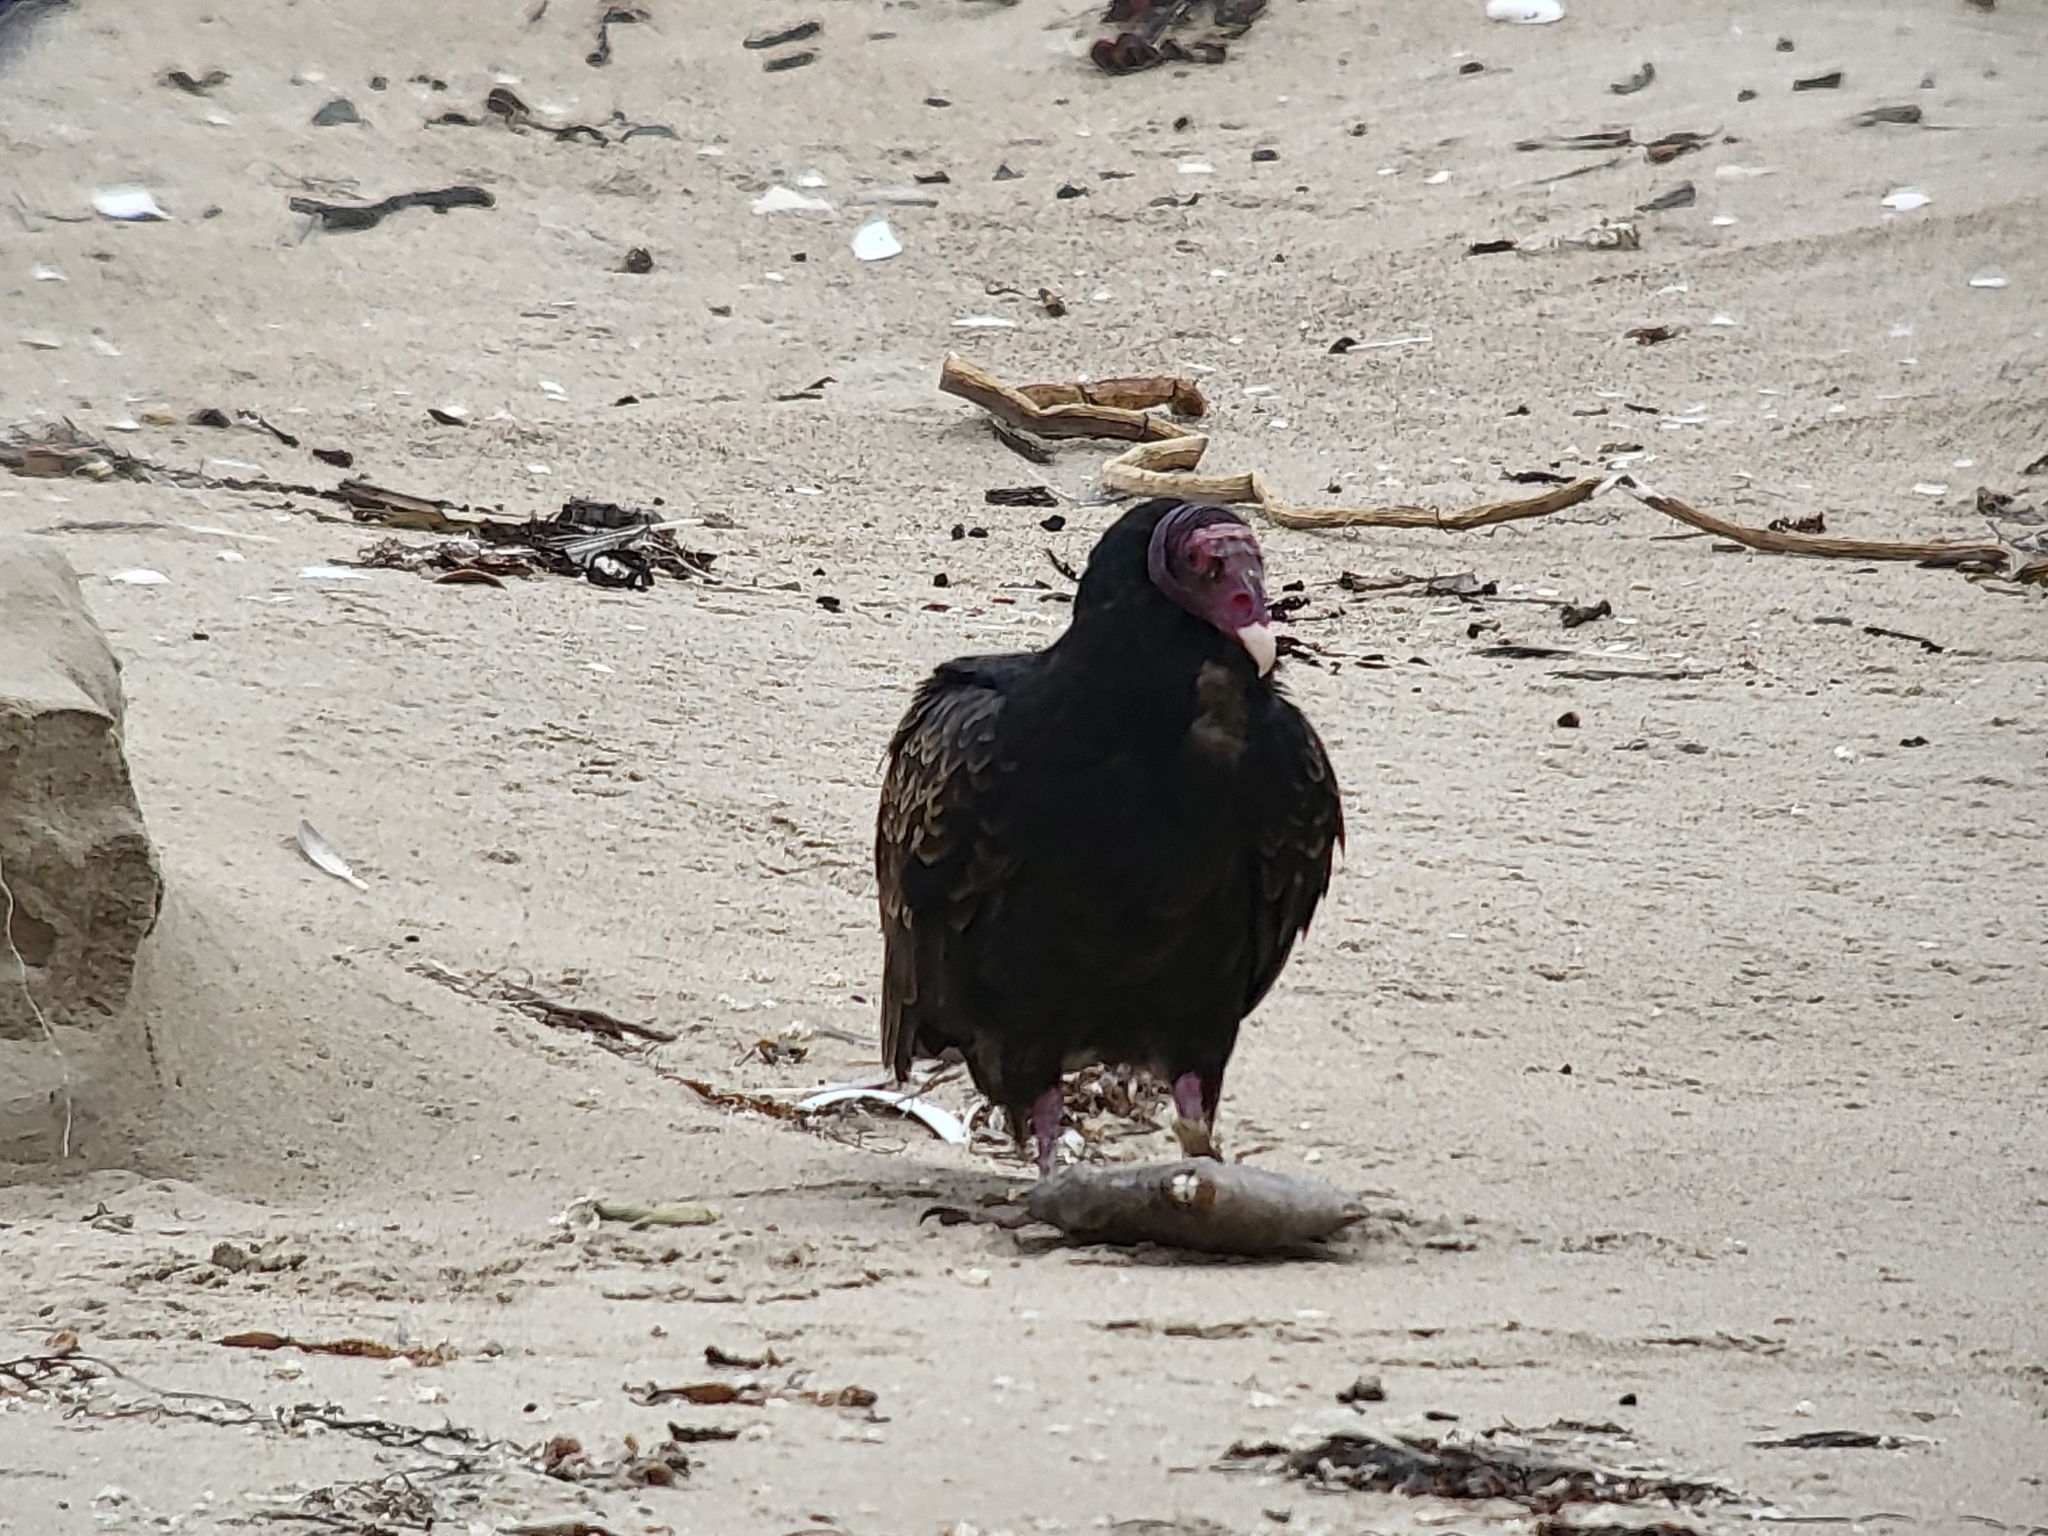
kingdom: Animalia
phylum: Chordata
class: Aves
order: Accipitriformes
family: Cathartidae
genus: Cathartes
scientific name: Cathartes aura
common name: Turkey vulture
